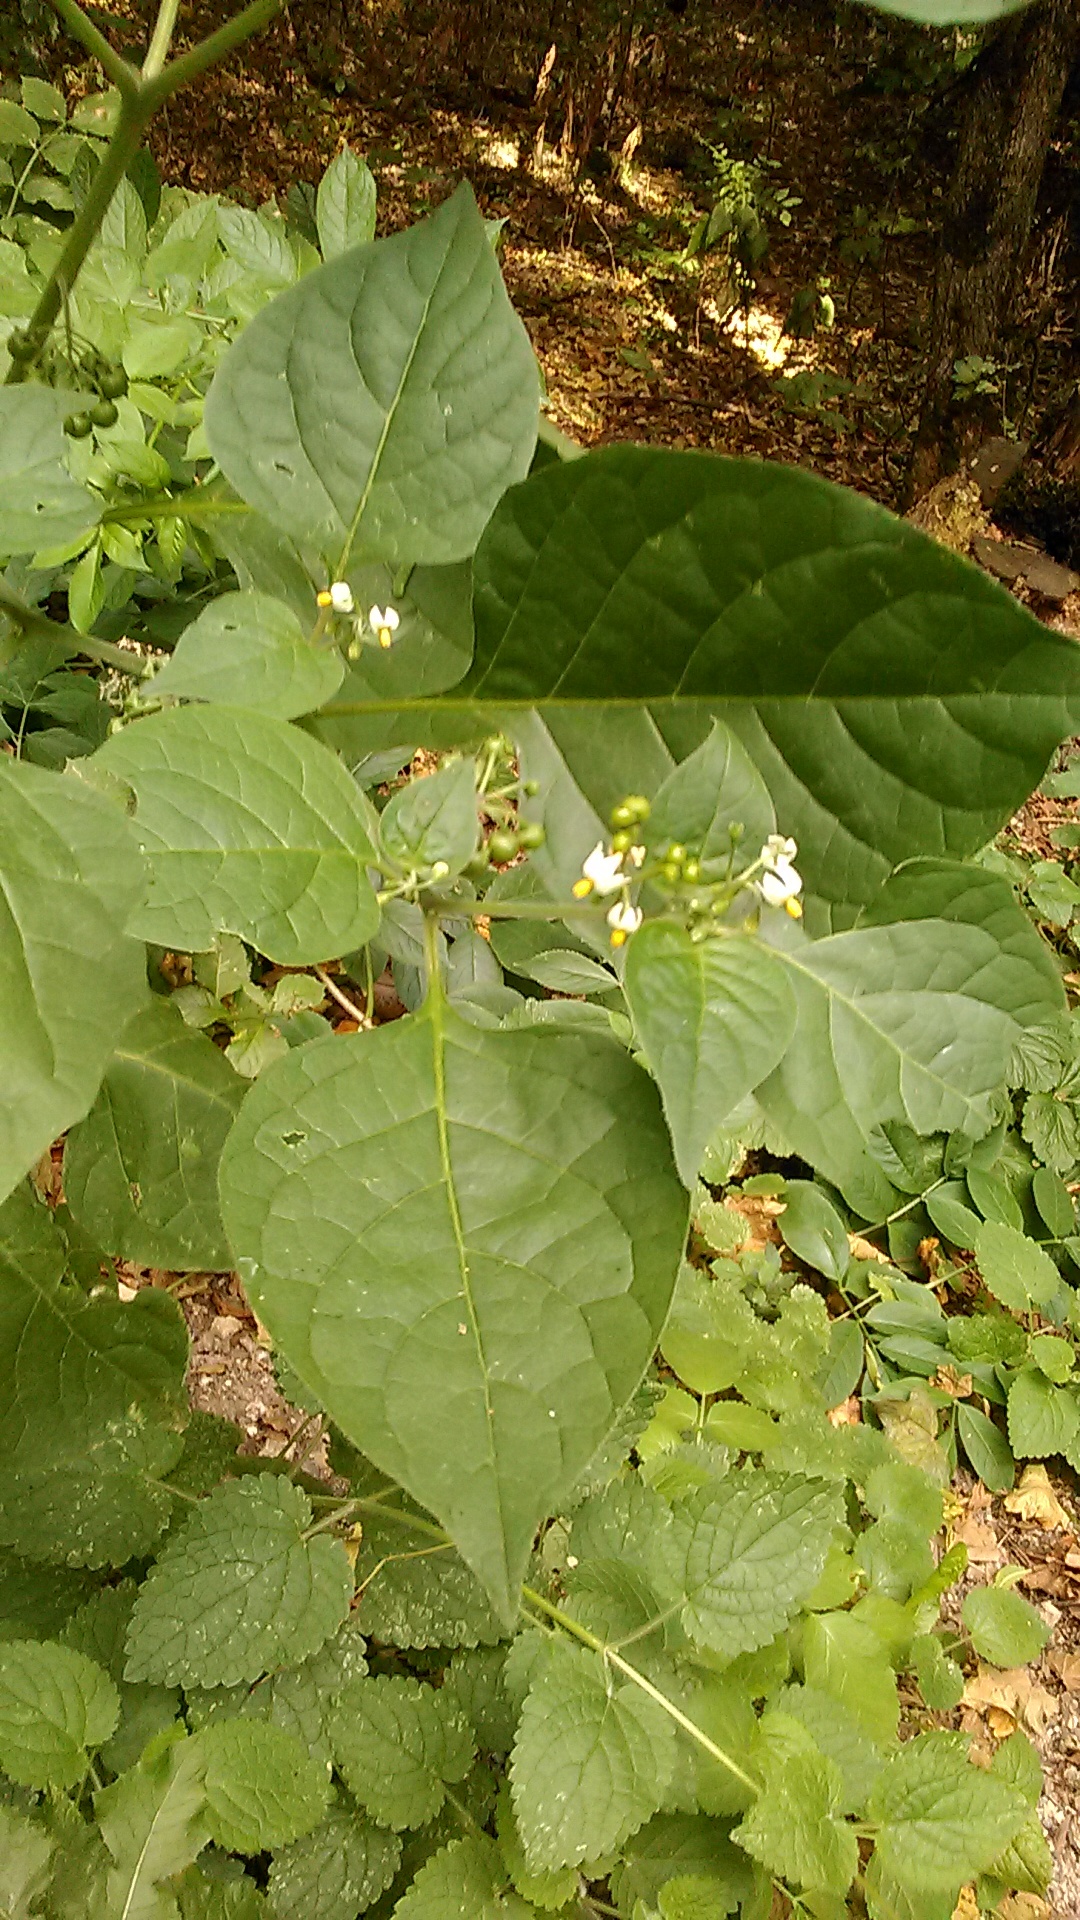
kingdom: Plantae
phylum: Tracheophyta
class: Magnoliopsida
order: Solanales
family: Solanaceae
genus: Solanum
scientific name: Solanum nigrum
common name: Black nightshade
